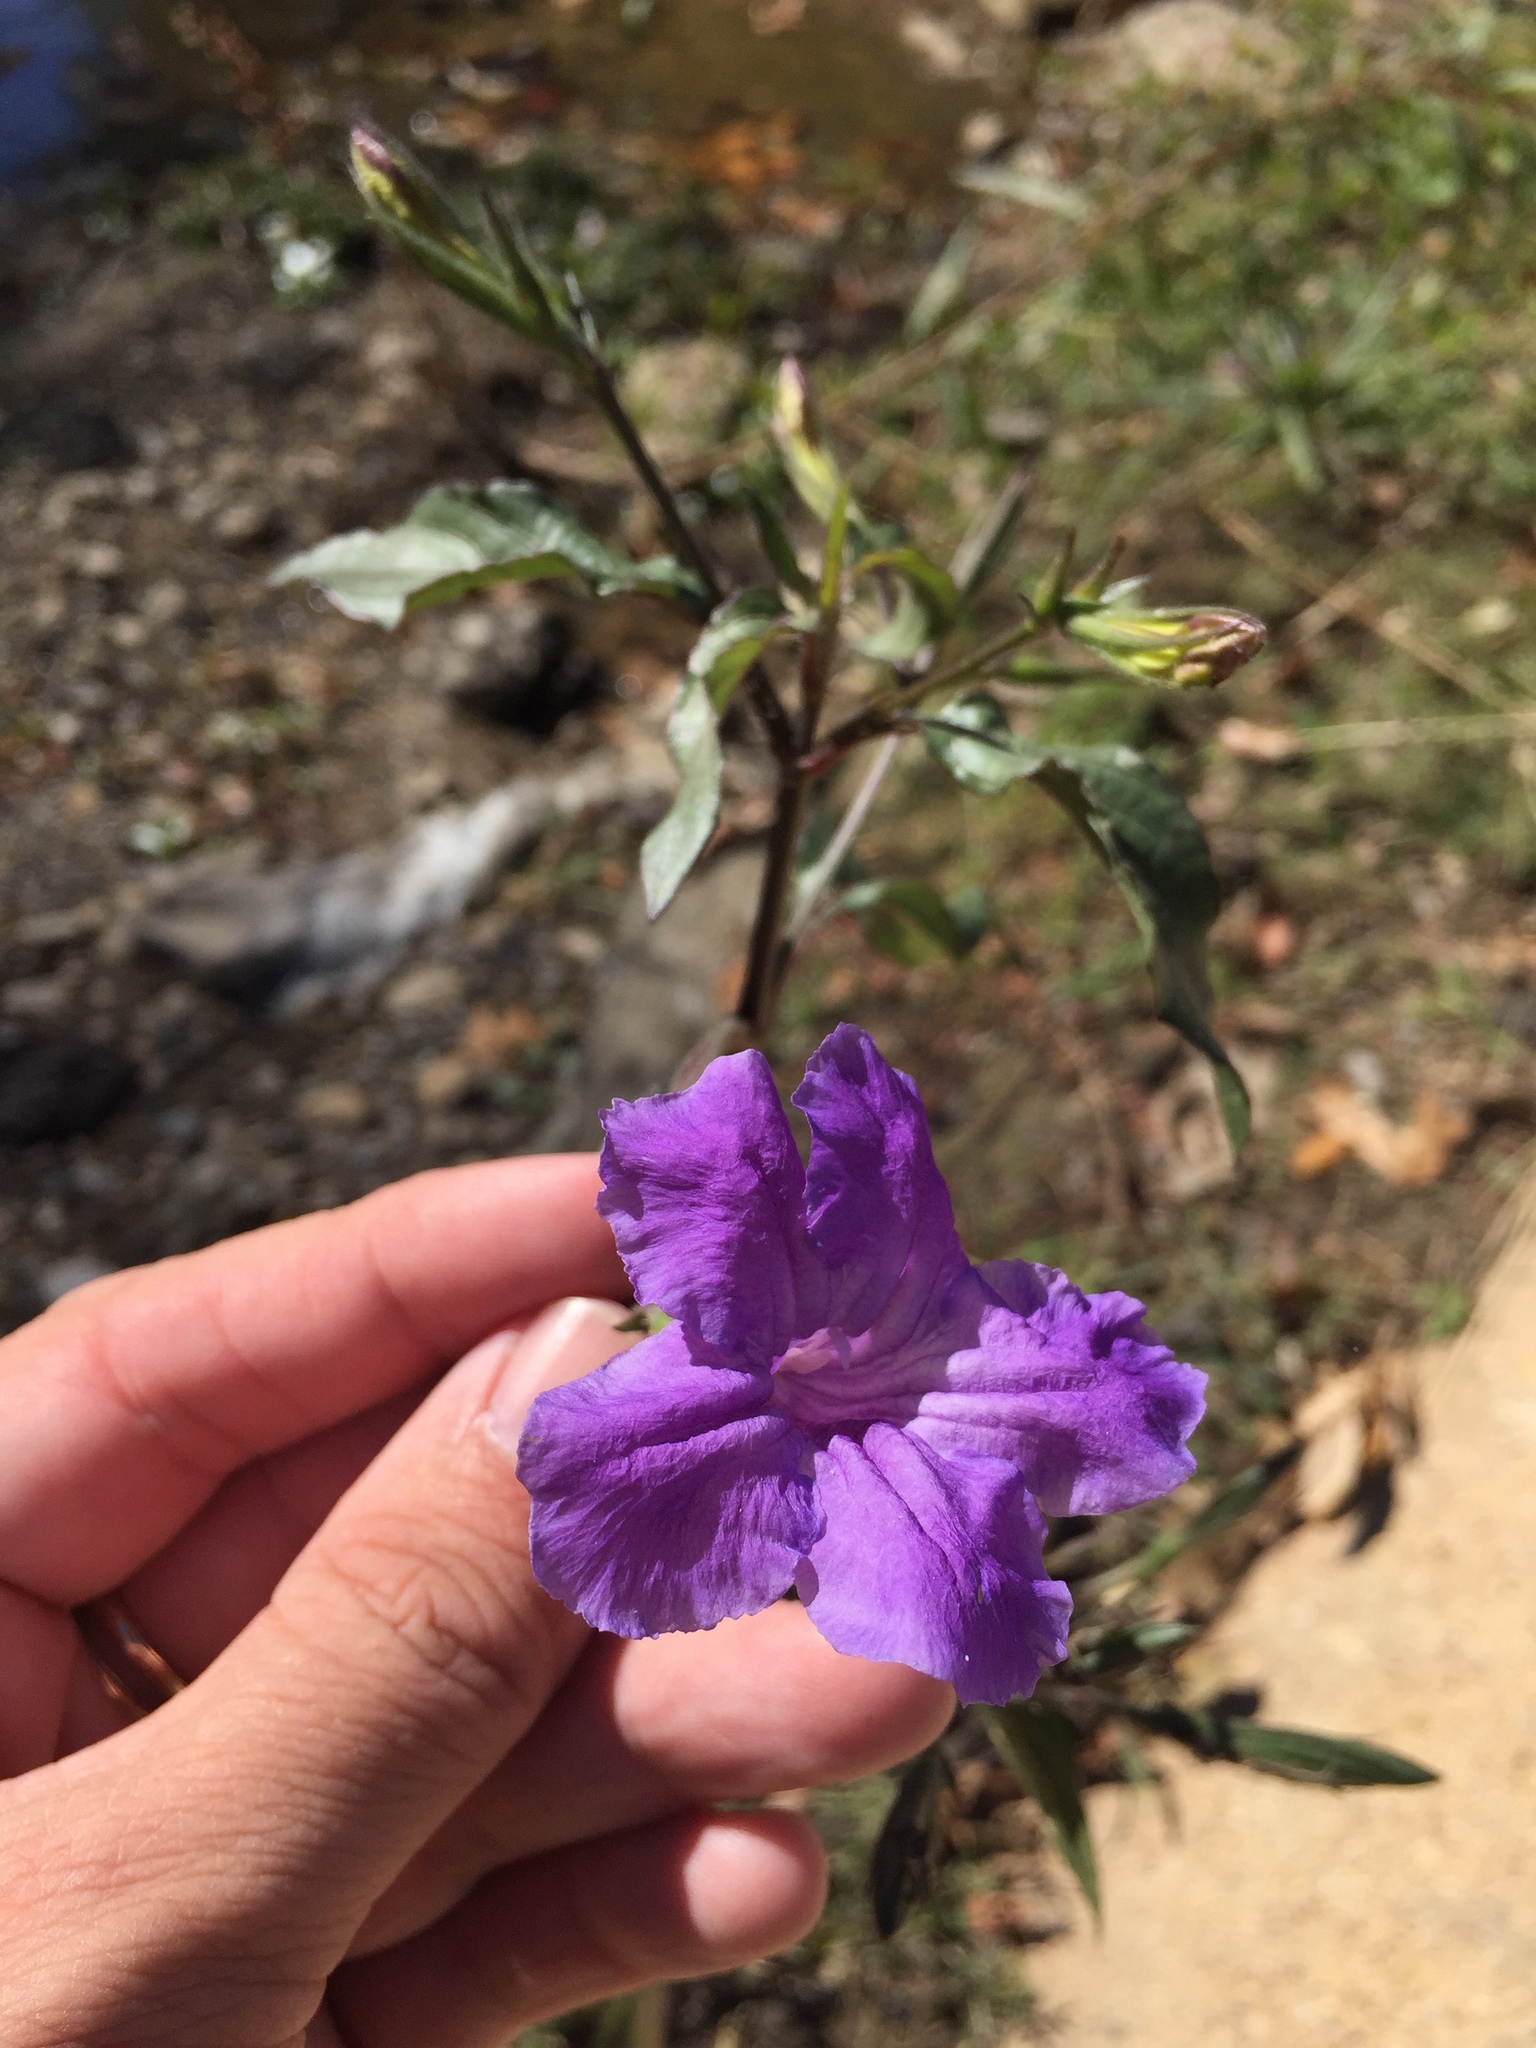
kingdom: Plantae
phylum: Tracheophyta
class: Magnoliopsida
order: Lamiales
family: Acanthaceae
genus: Ruellia
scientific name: Ruellia simplex
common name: Softseed wild petunia
